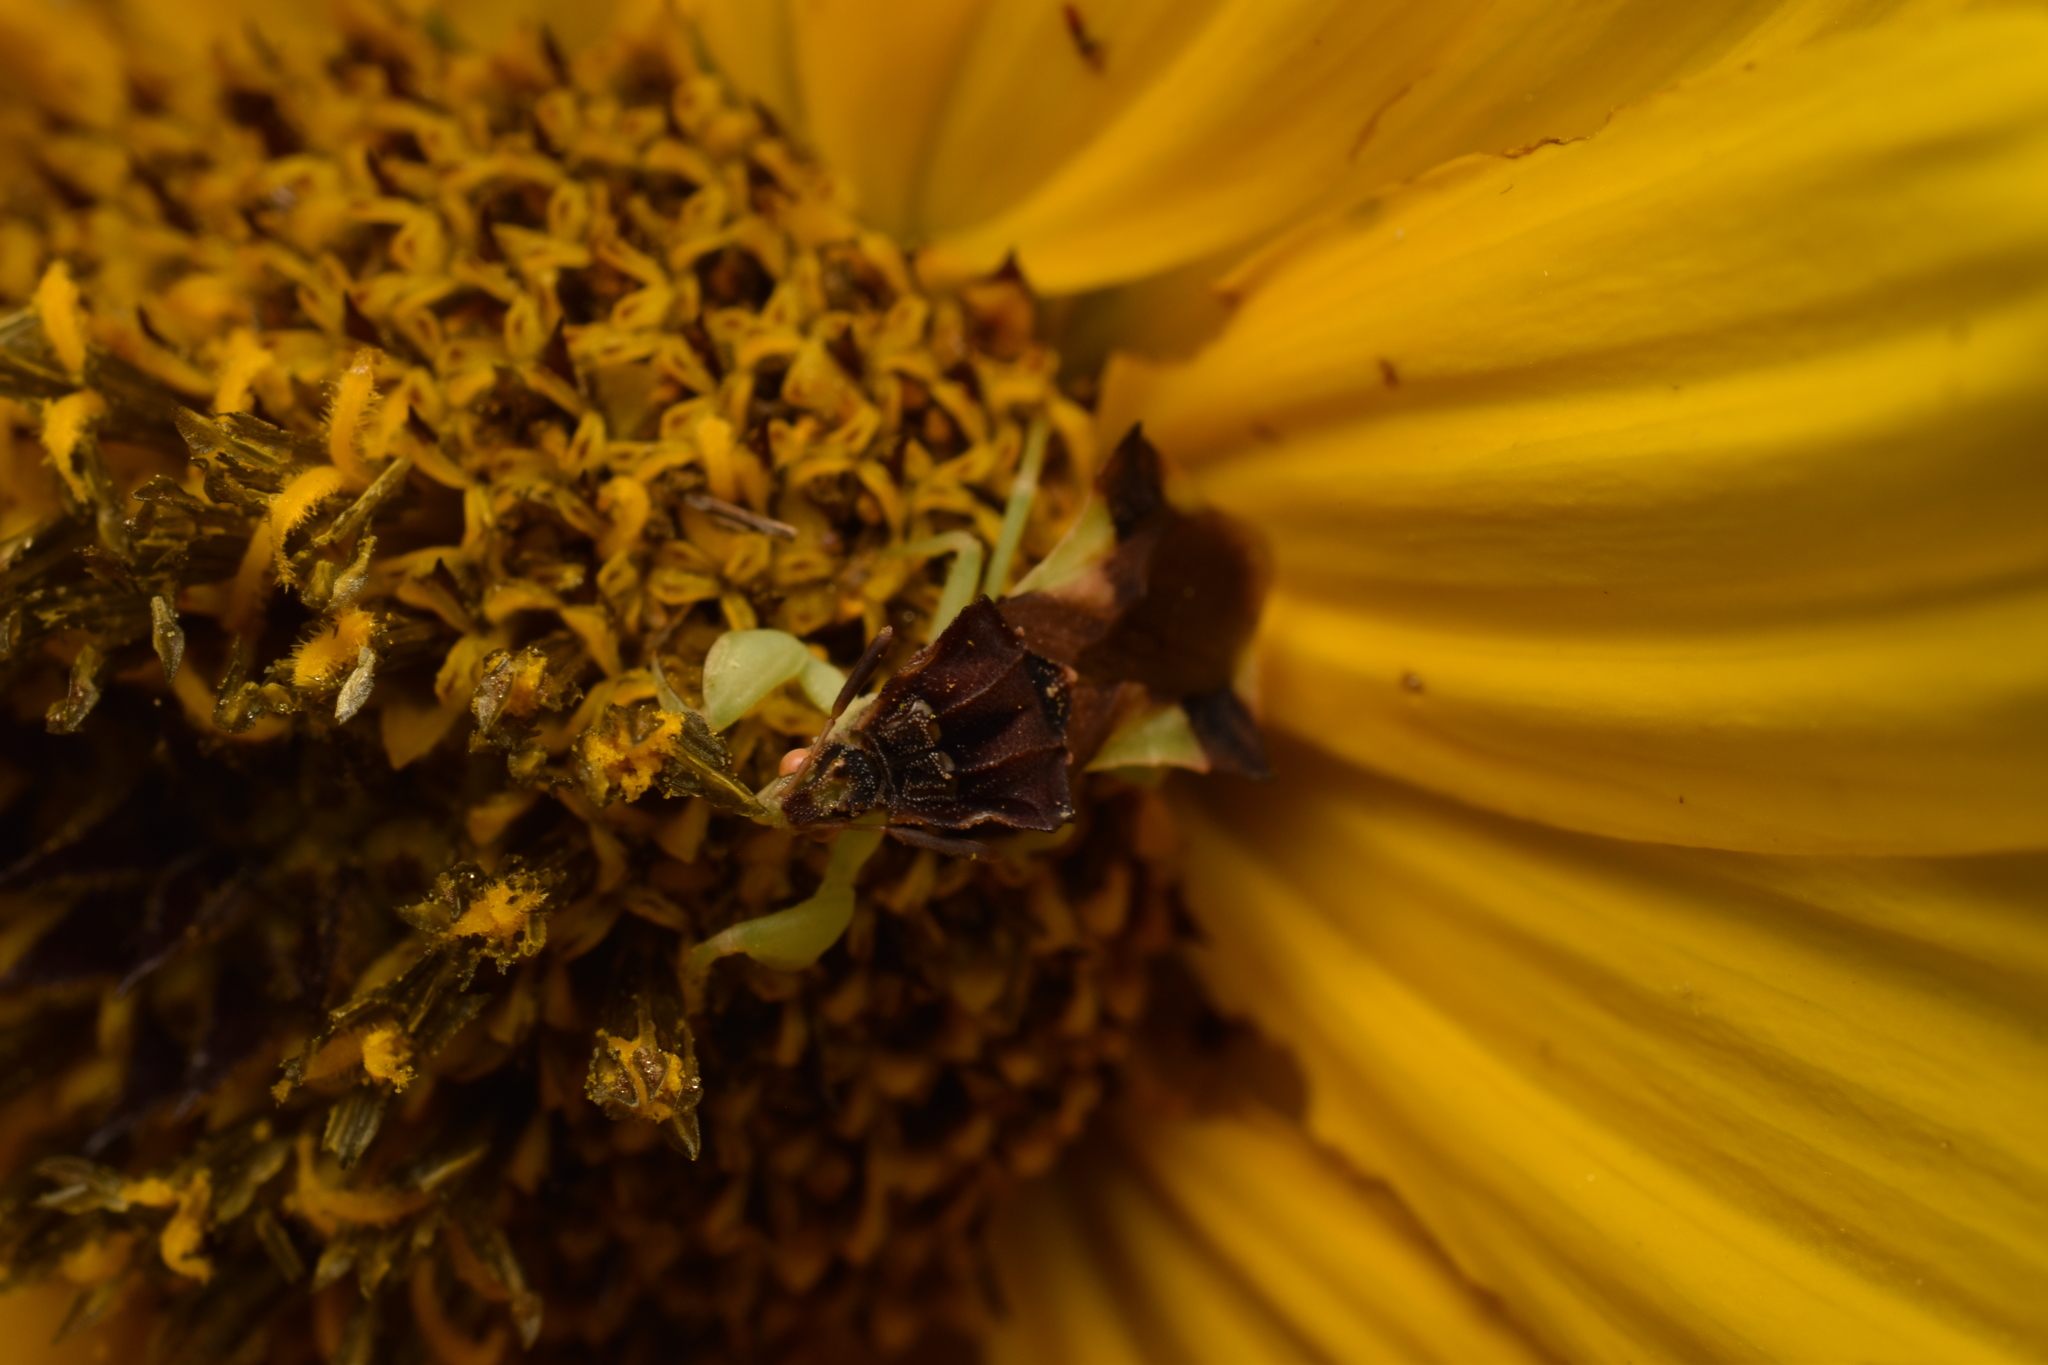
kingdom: Animalia
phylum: Arthropoda
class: Insecta
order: Hemiptera
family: Reduviidae
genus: Phymata
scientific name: Phymata pennsylvanica
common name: Pennsylvania ambush bug
